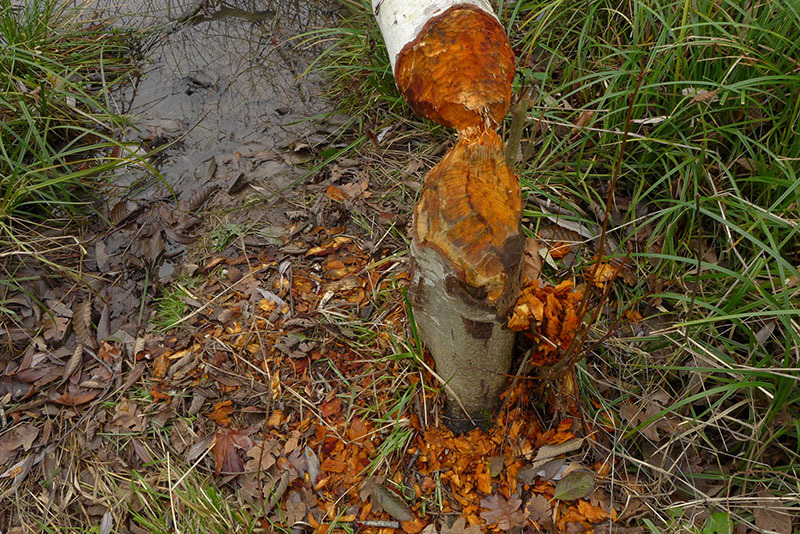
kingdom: Animalia
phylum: Chordata
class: Mammalia
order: Rodentia
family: Castoridae
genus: Castor
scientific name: Castor canadensis
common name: American beaver
